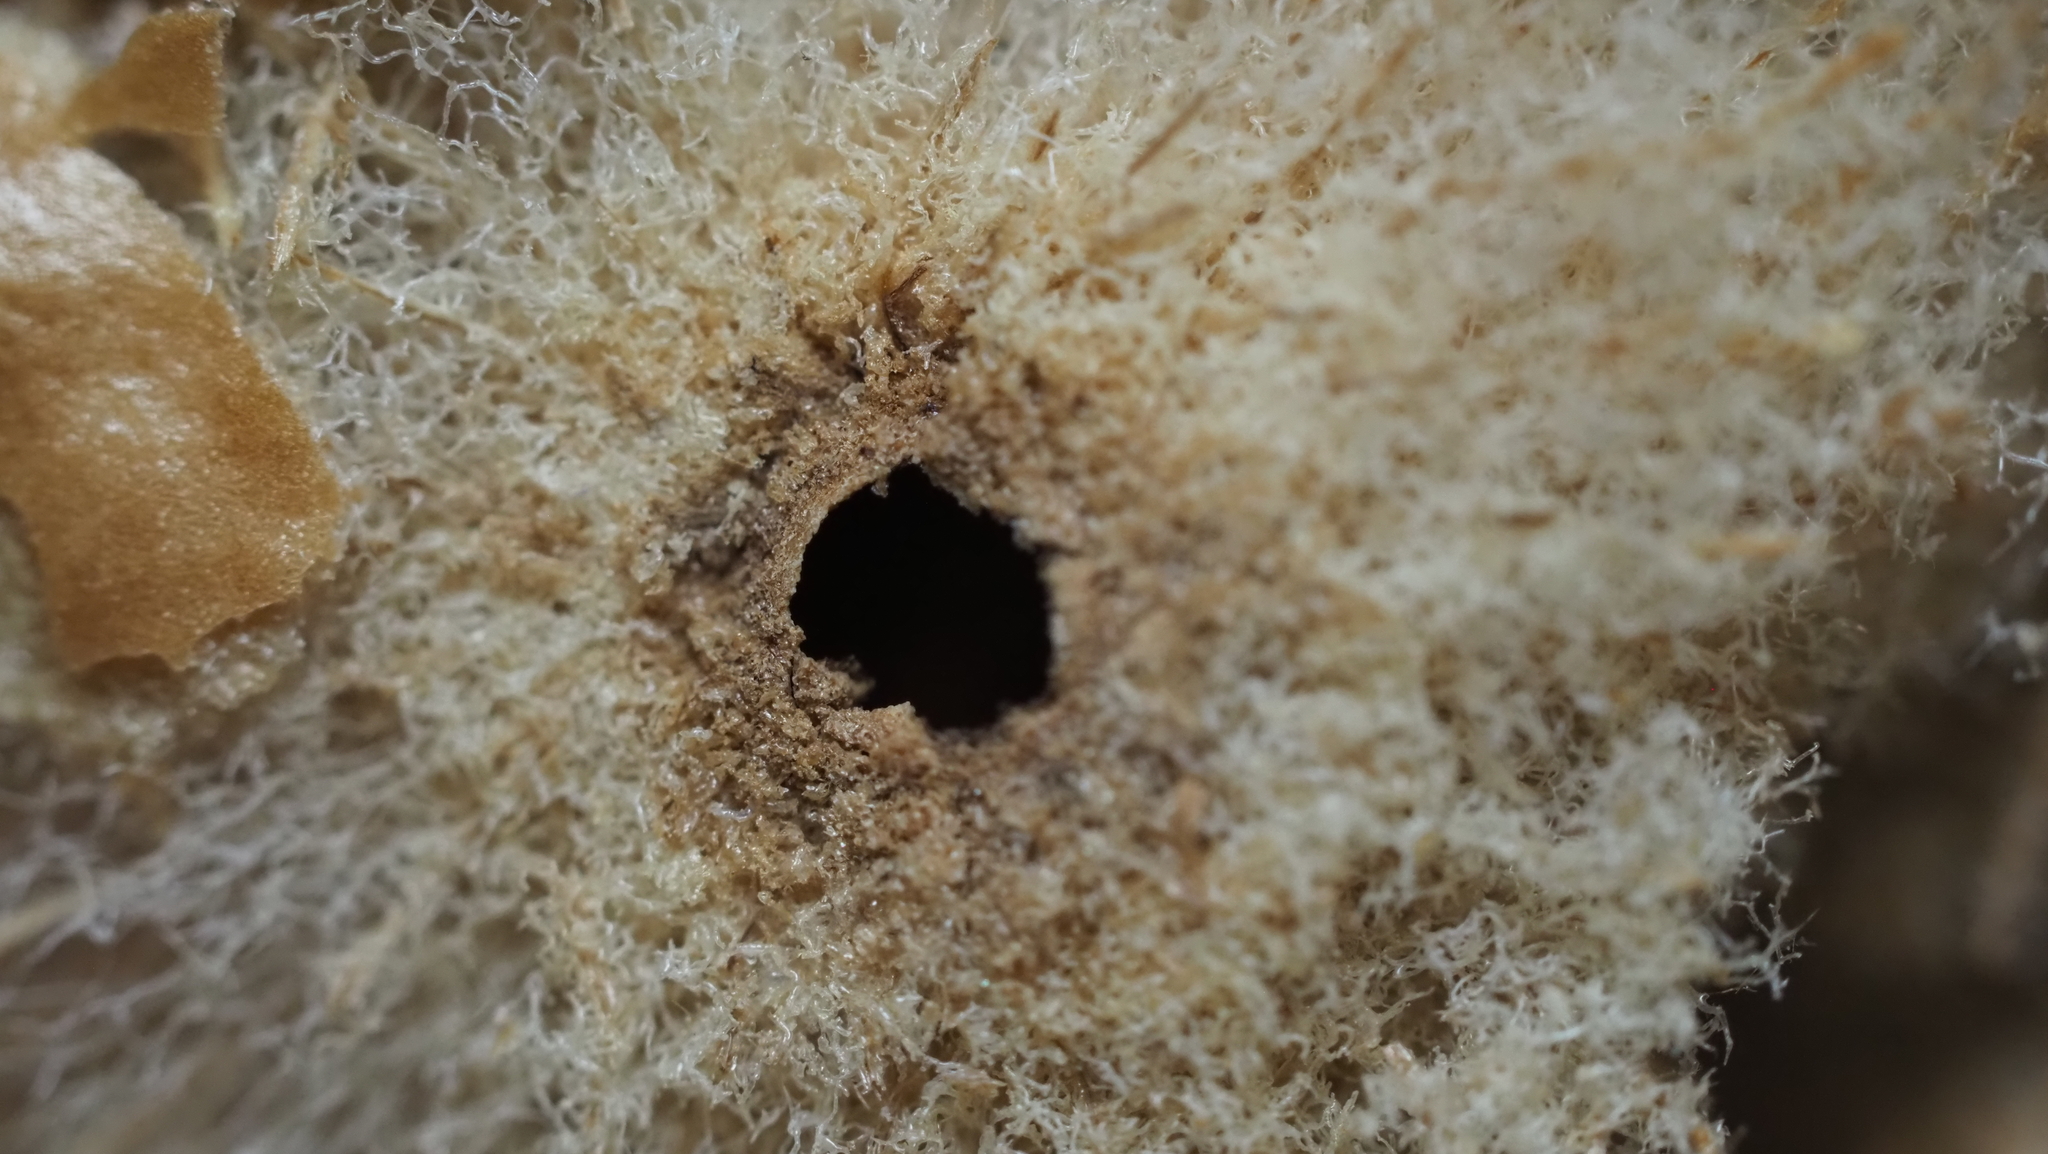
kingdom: Animalia
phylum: Arthropoda
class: Insecta
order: Hymenoptera
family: Cynipidae
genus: Amphibolips
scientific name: Amphibolips
